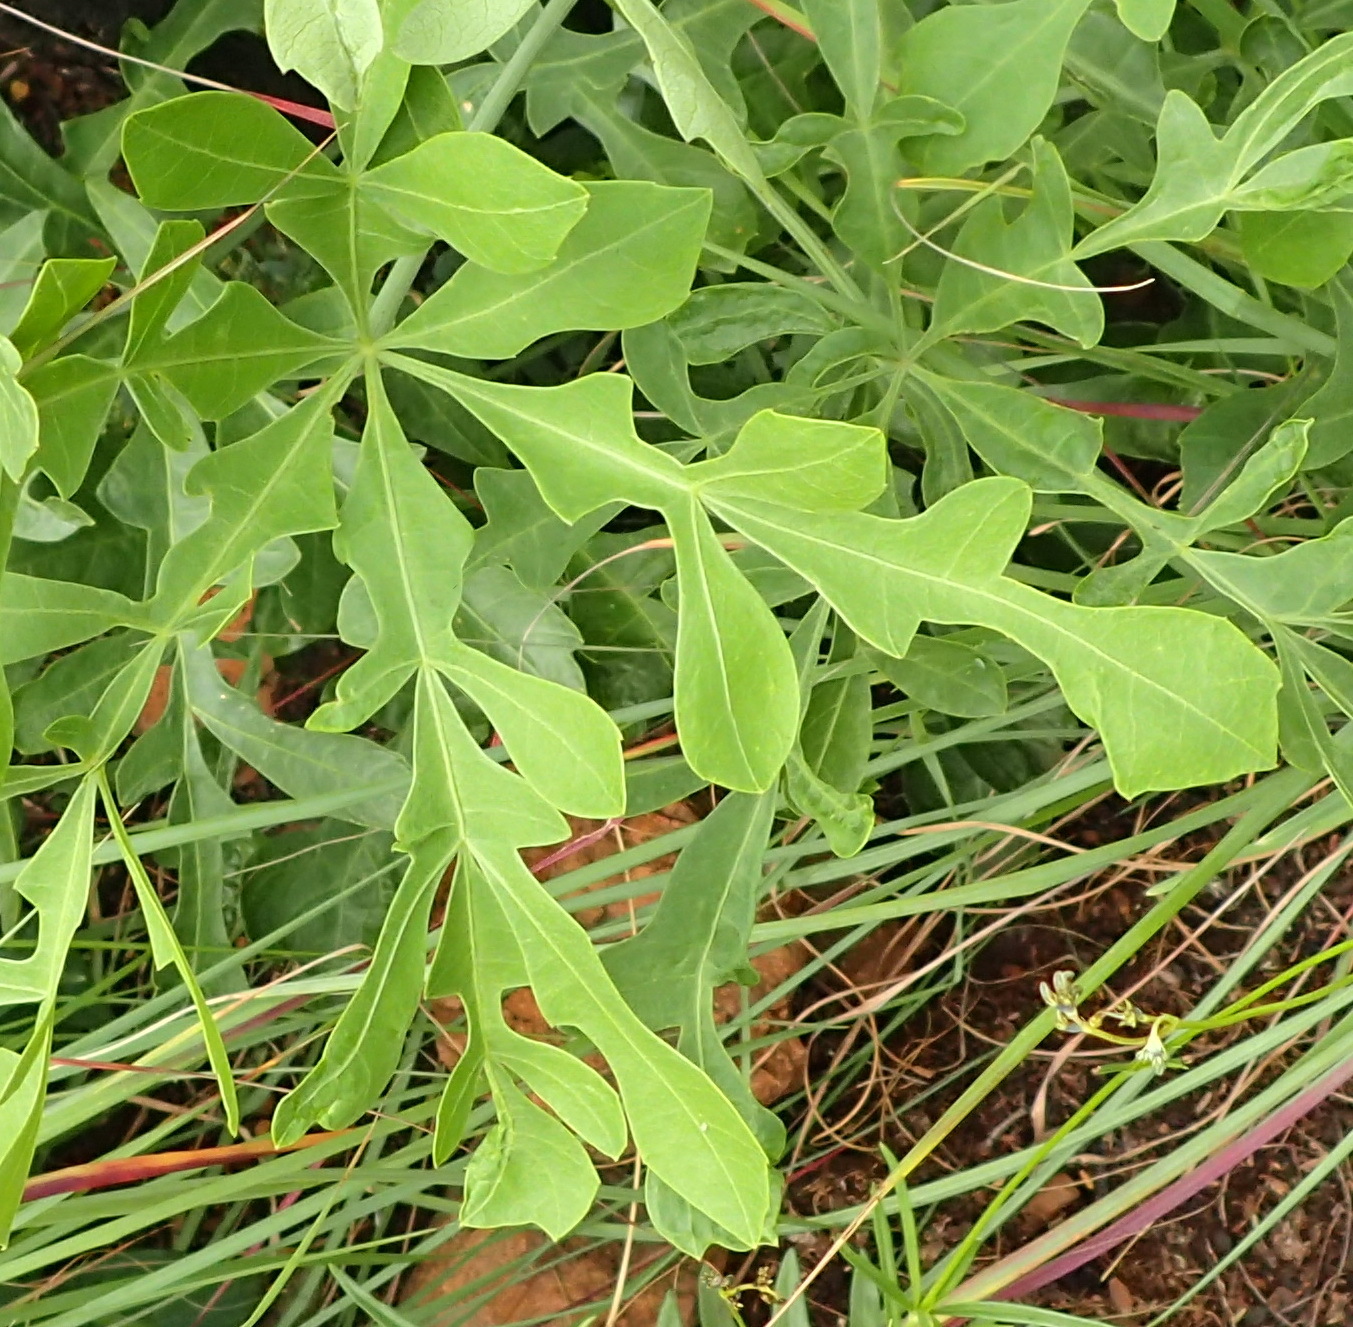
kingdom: Plantae
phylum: Tracheophyta
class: Magnoliopsida
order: Apiales
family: Araliaceae
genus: Cussonia
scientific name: Cussonia paniculata
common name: Cabbagetree
